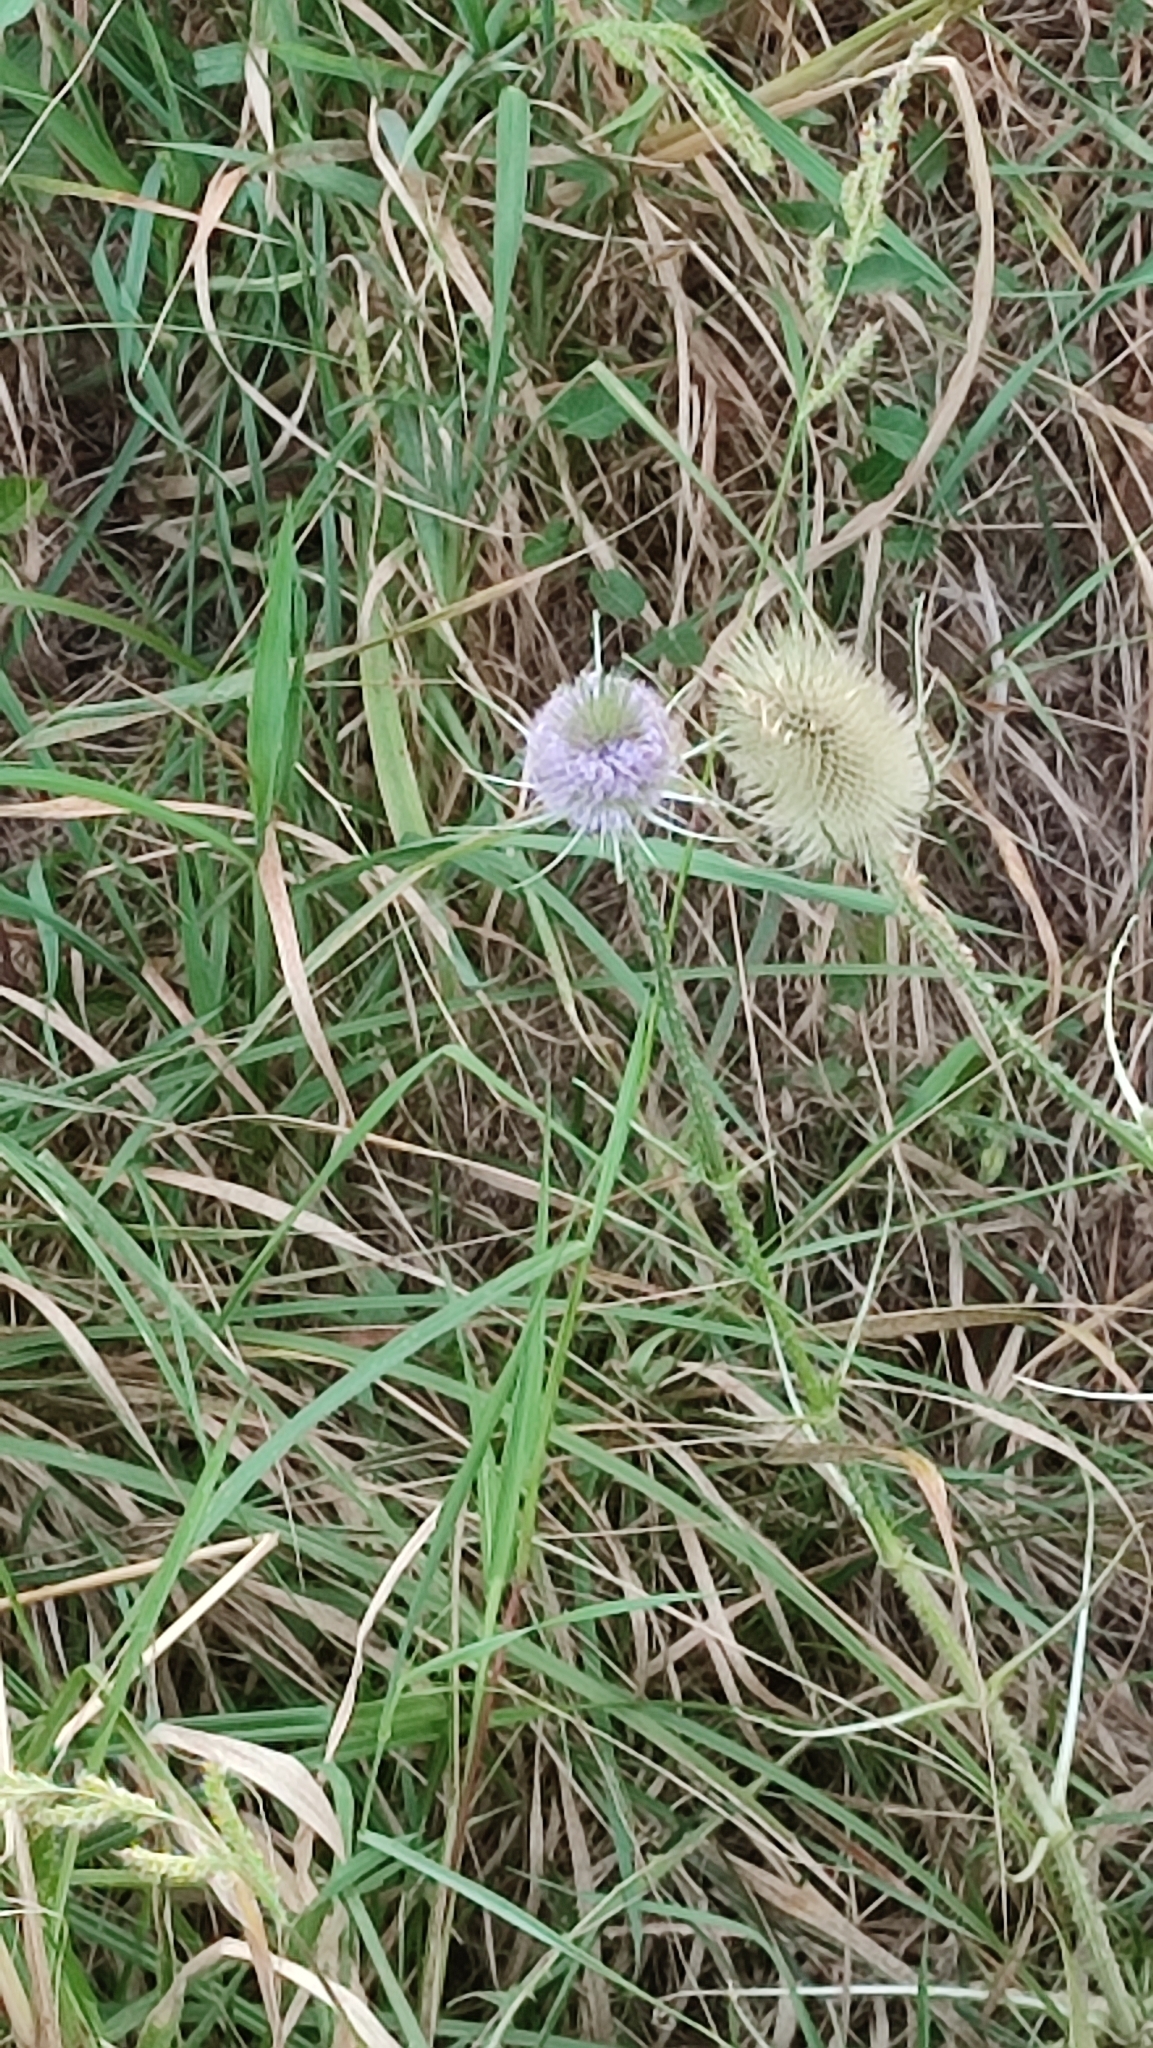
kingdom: Plantae
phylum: Tracheophyta
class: Magnoliopsida
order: Dipsacales
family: Caprifoliaceae
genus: Dipsacus
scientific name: Dipsacus fullonum
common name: Teasel
